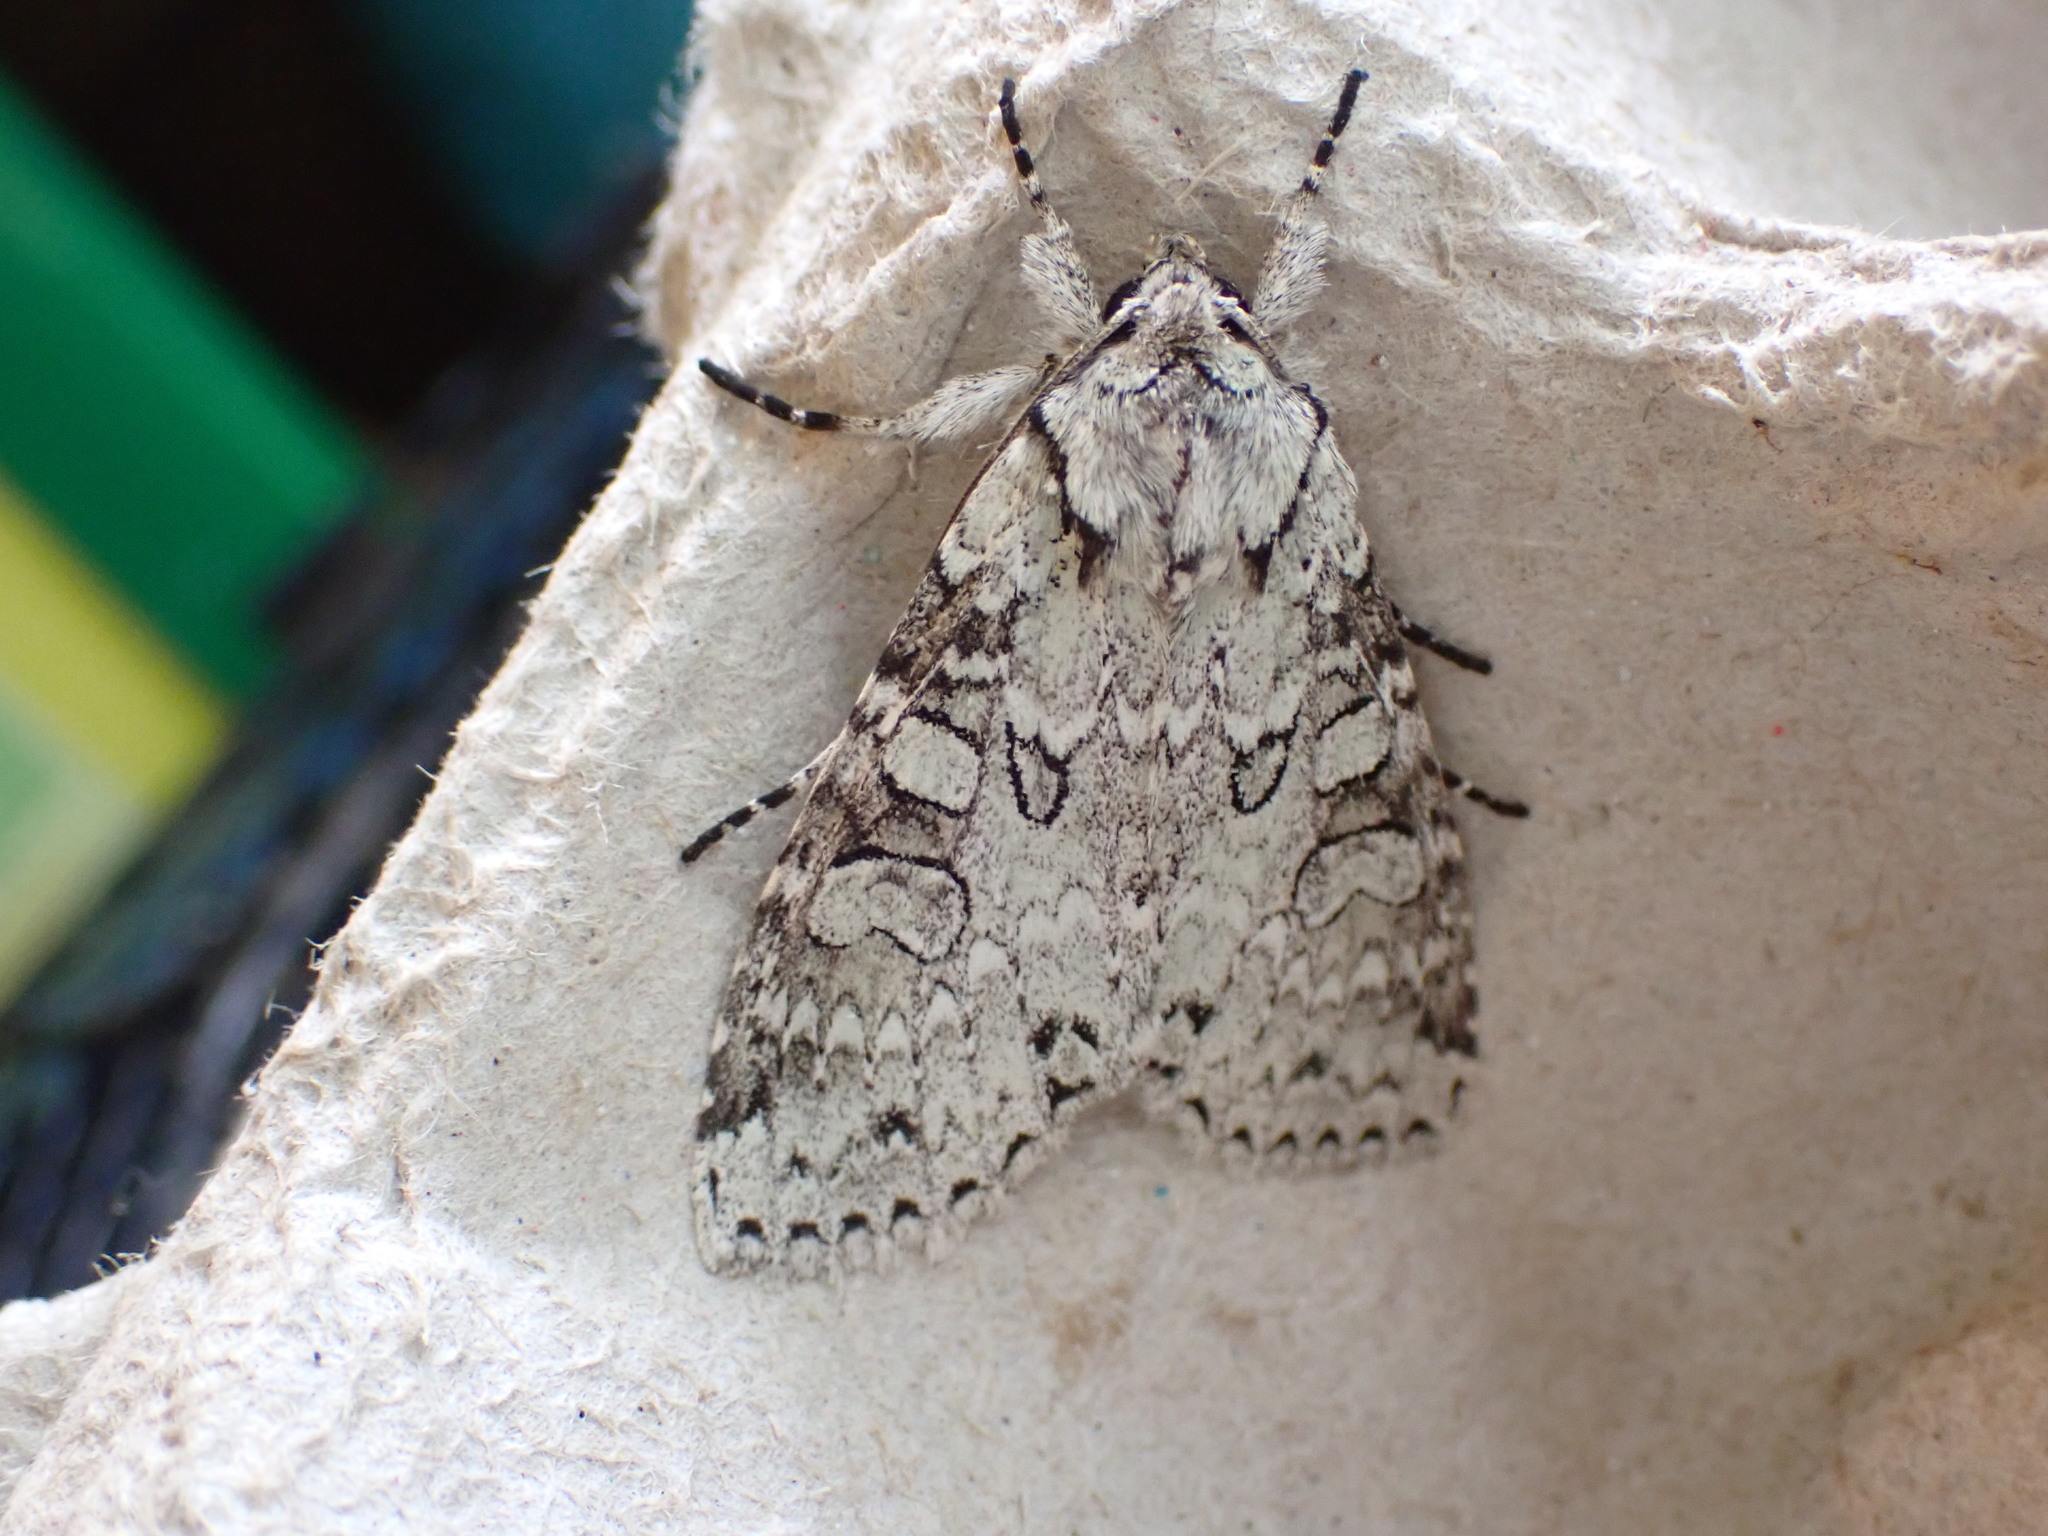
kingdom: Animalia
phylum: Arthropoda
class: Insecta
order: Lepidoptera
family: Noctuidae
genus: Polia
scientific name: Polia nimbosa
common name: Stormy arches
